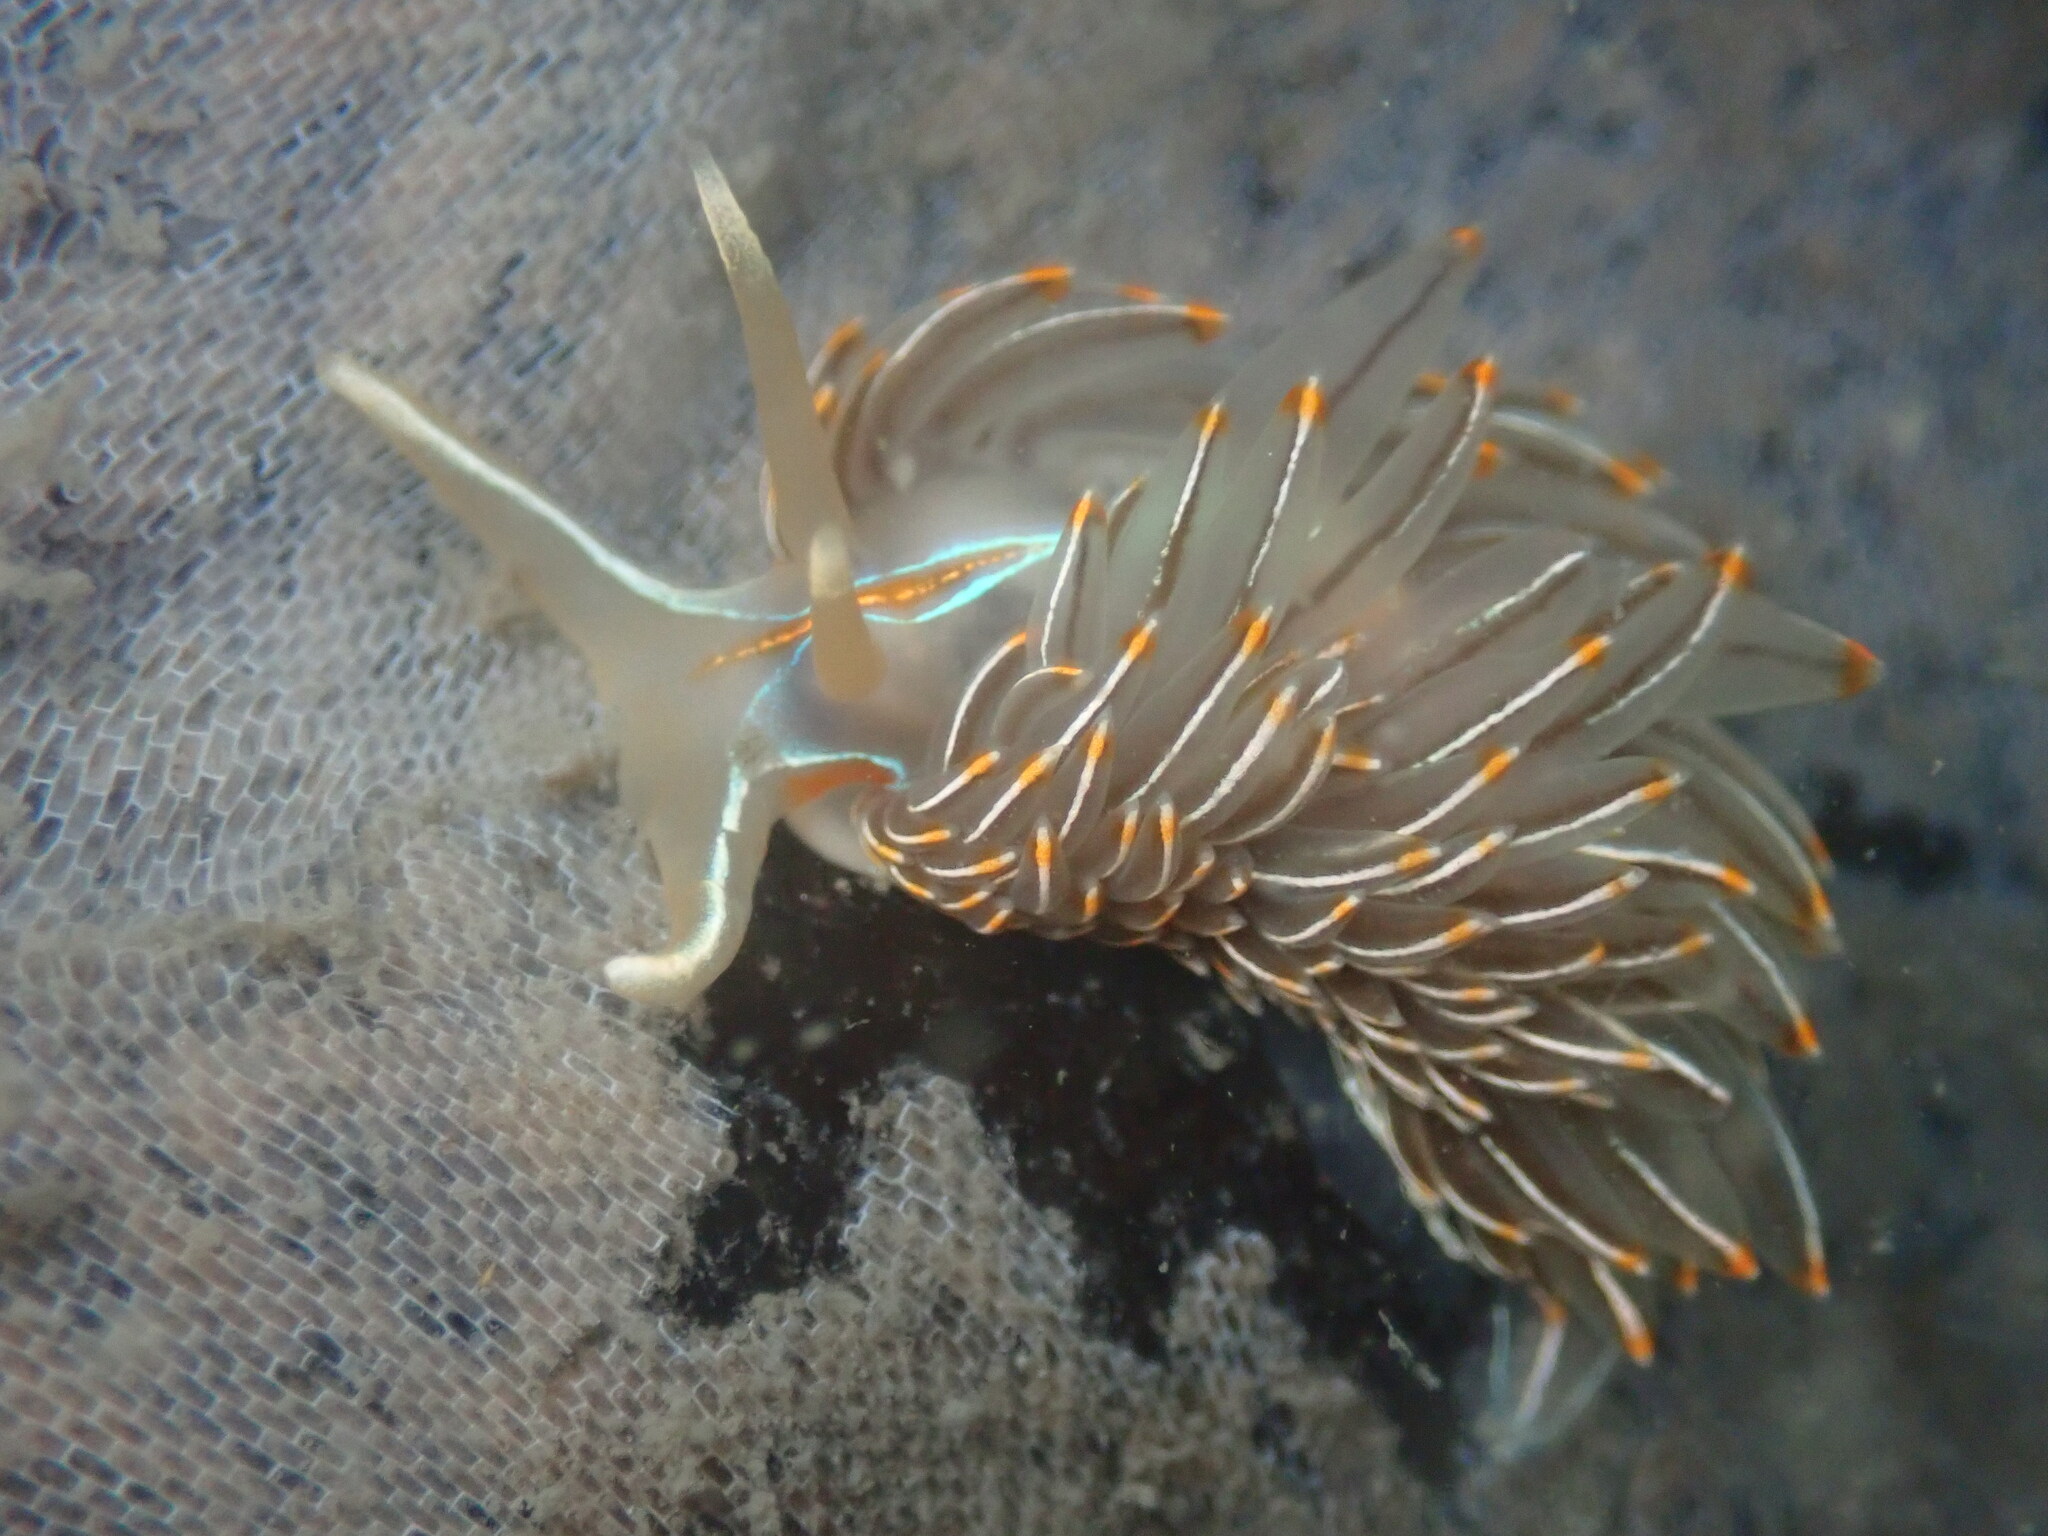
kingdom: Animalia
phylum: Mollusca
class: Gastropoda
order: Nudibranchia
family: Myrrhinidae
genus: Hermissenda
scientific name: Hermissenda crassicornis
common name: Hermissenda
